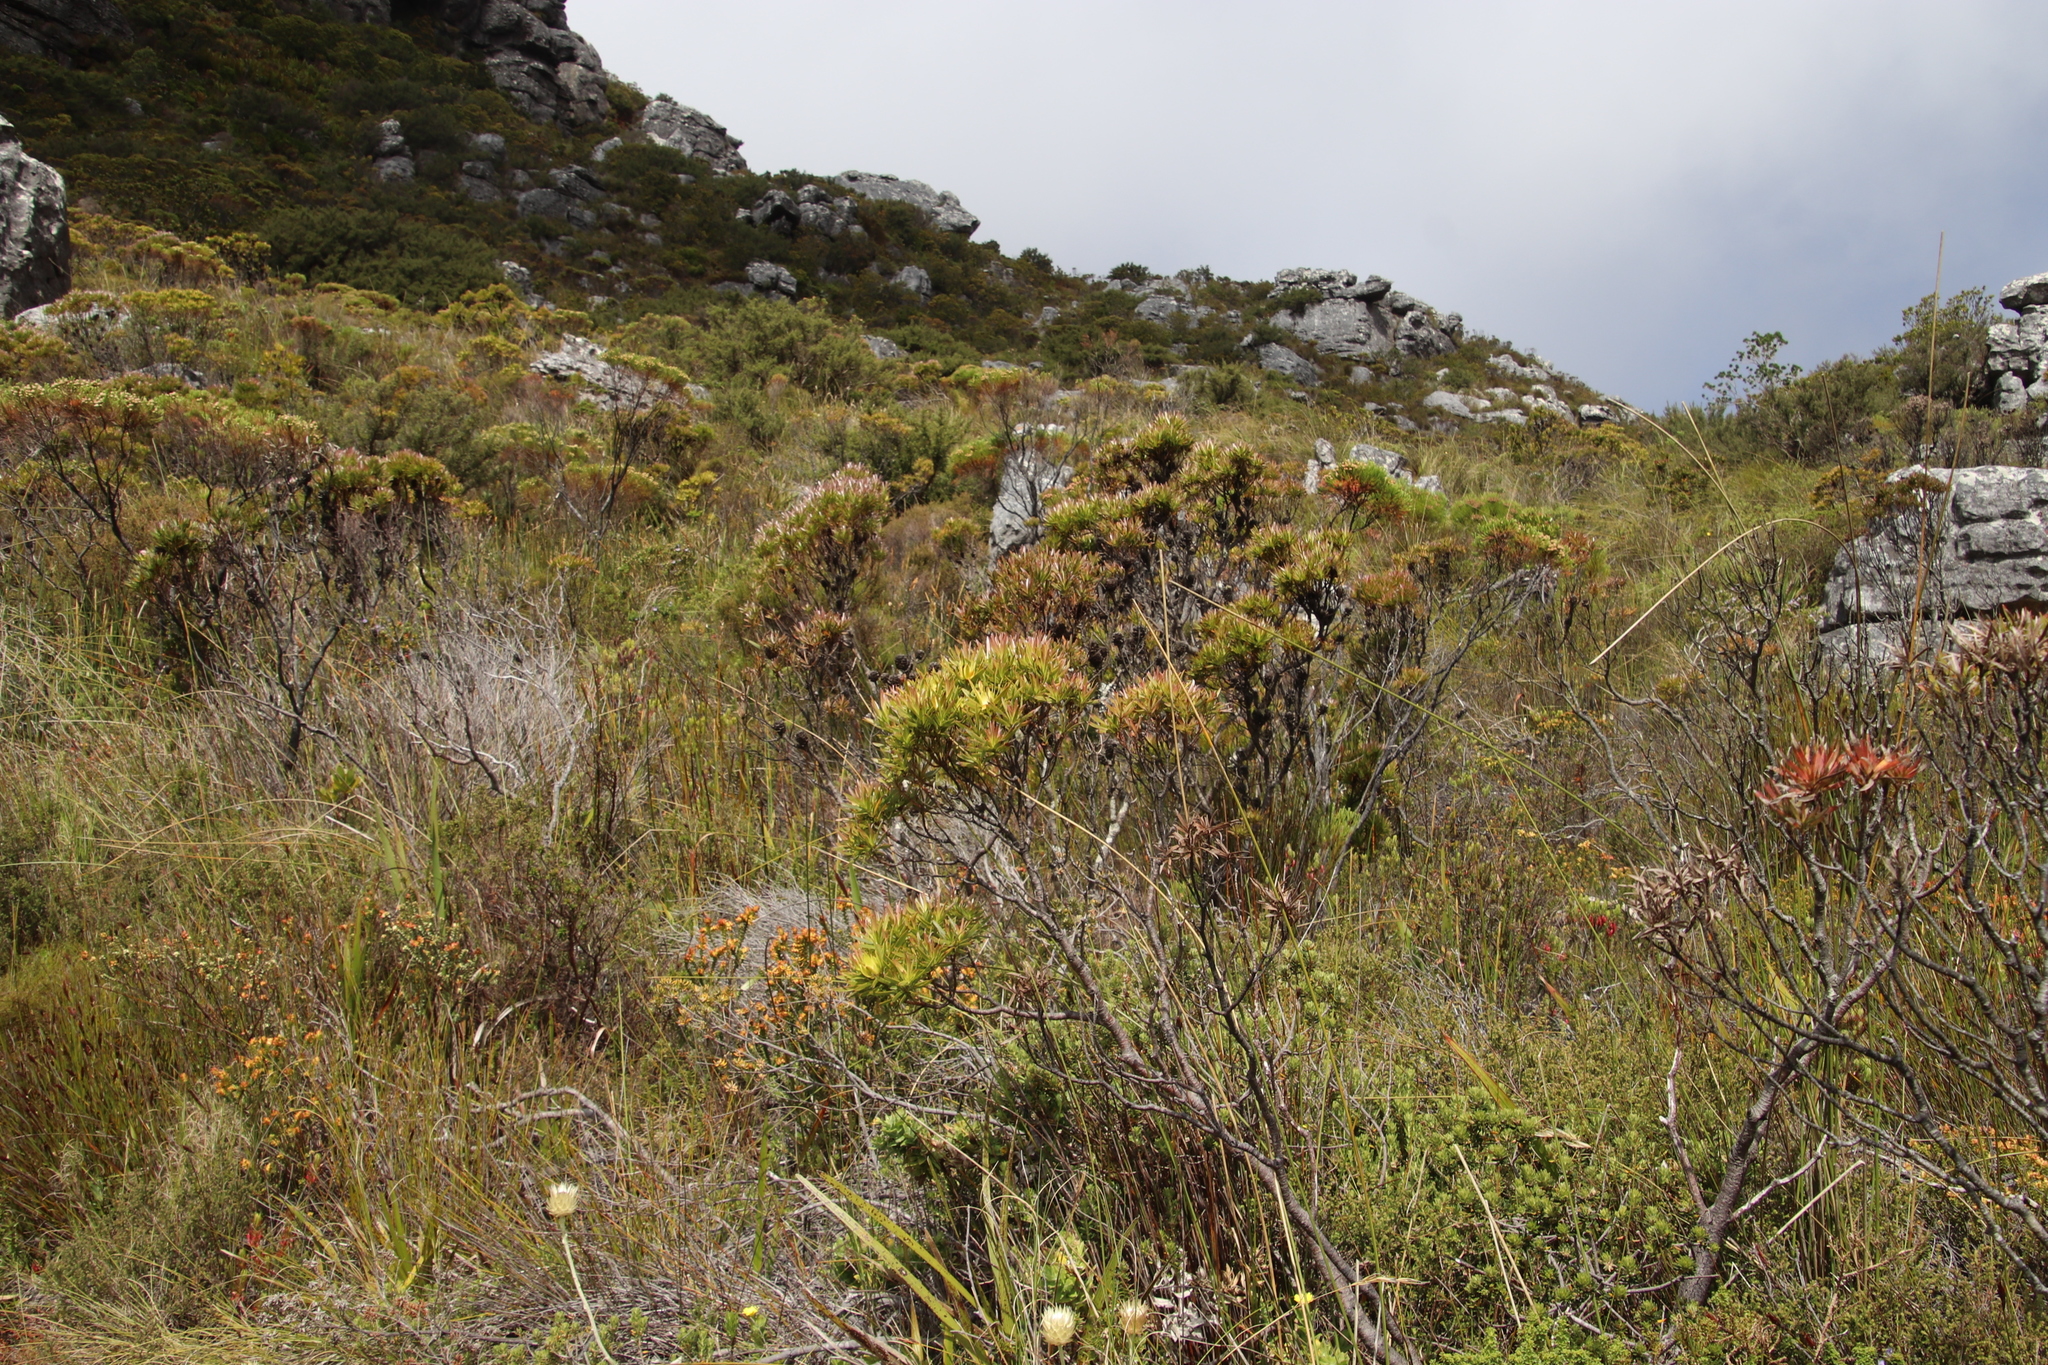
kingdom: Plantae
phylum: Tracheophyta
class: Magnoliopsida
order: Proteales
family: Proteaceae
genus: Leucadendron
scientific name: Leucadendron xanthoconus
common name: Sickle-leaf conebush
